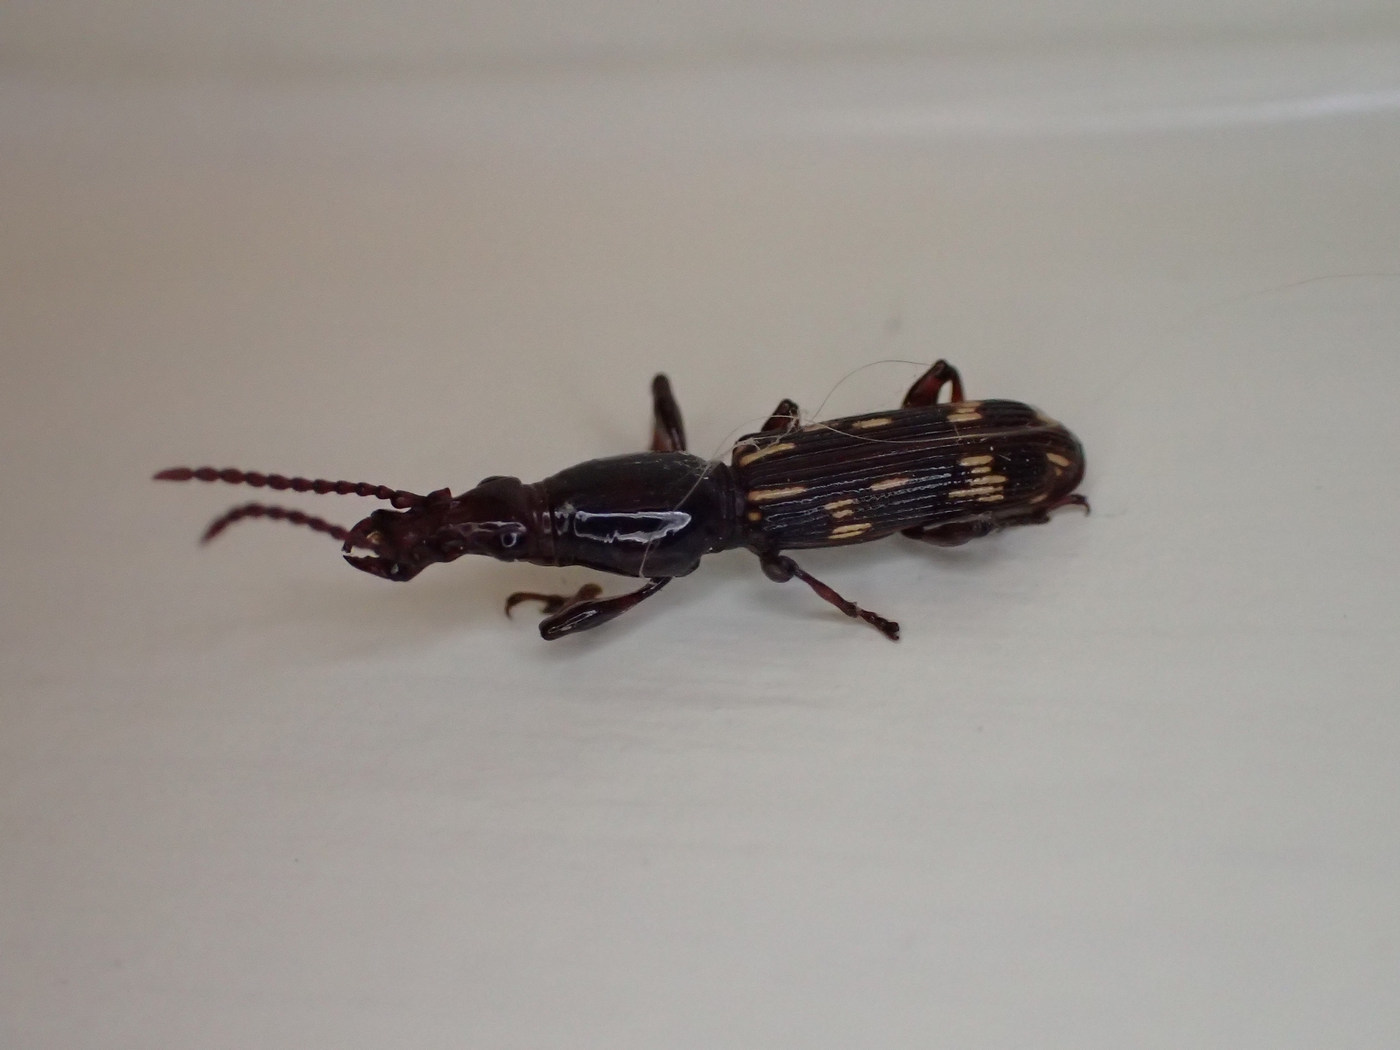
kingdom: Animalia
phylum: Arthropoda
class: Insecta
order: Coleoptera
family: Brentidae
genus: Arrenodes
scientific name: Arrenodes minutus
